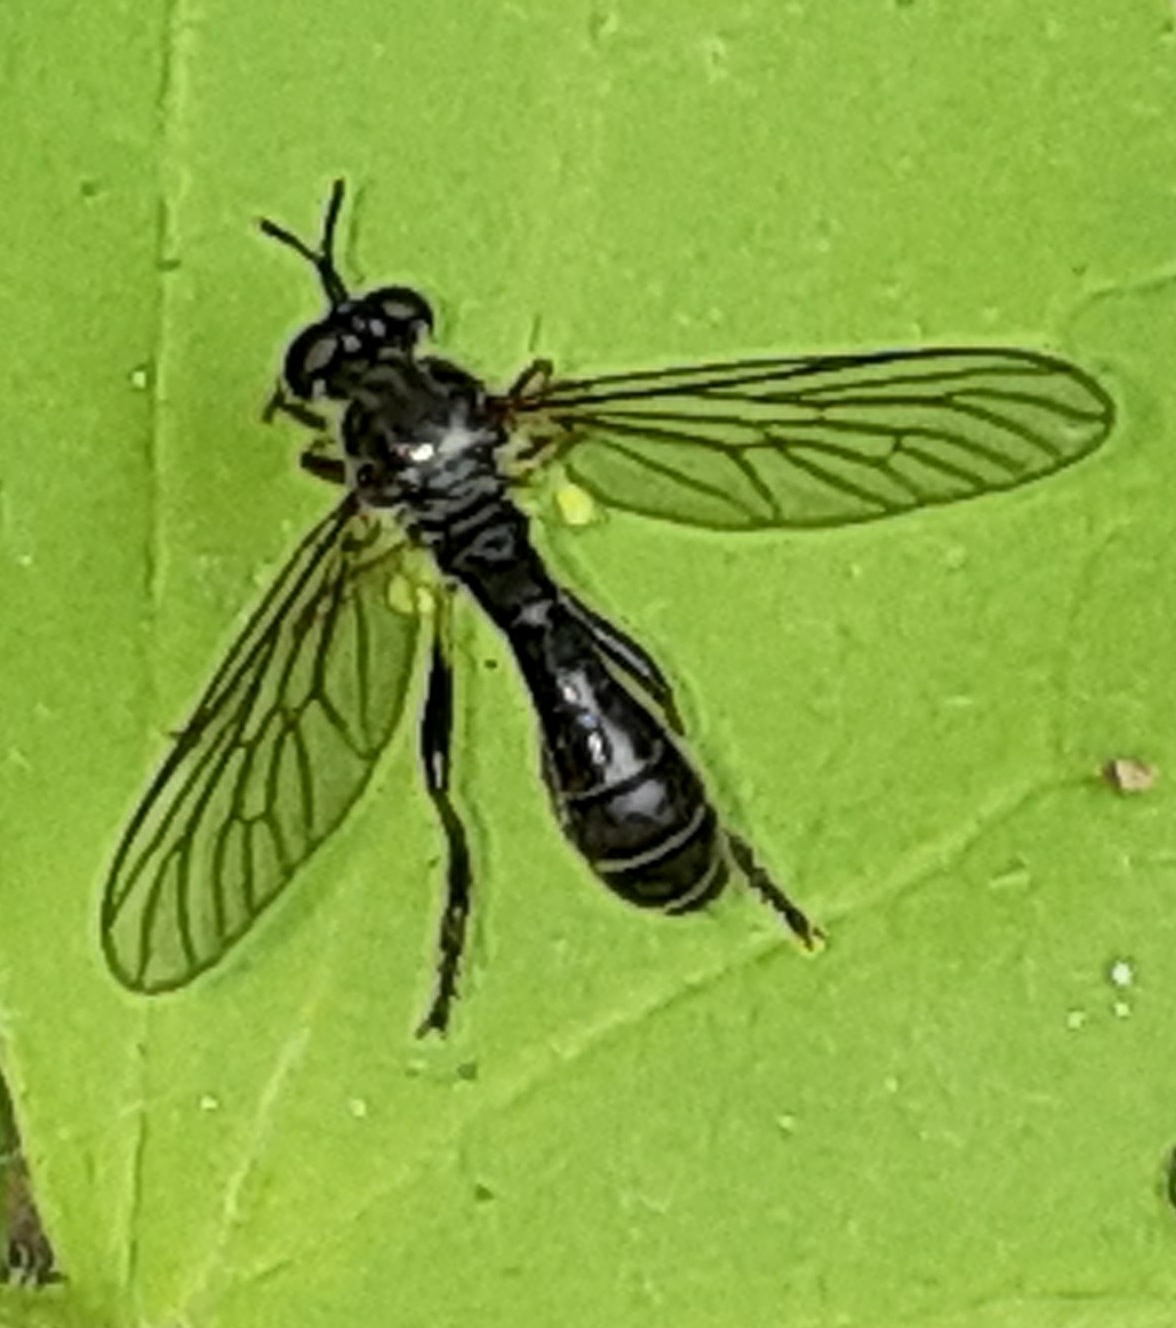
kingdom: Animalia
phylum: Arthropoda
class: Insecta
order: Diptera
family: Asilidae
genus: Dioctria
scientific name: Dioctria hyalipennis
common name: Stripe-legged robberfly
